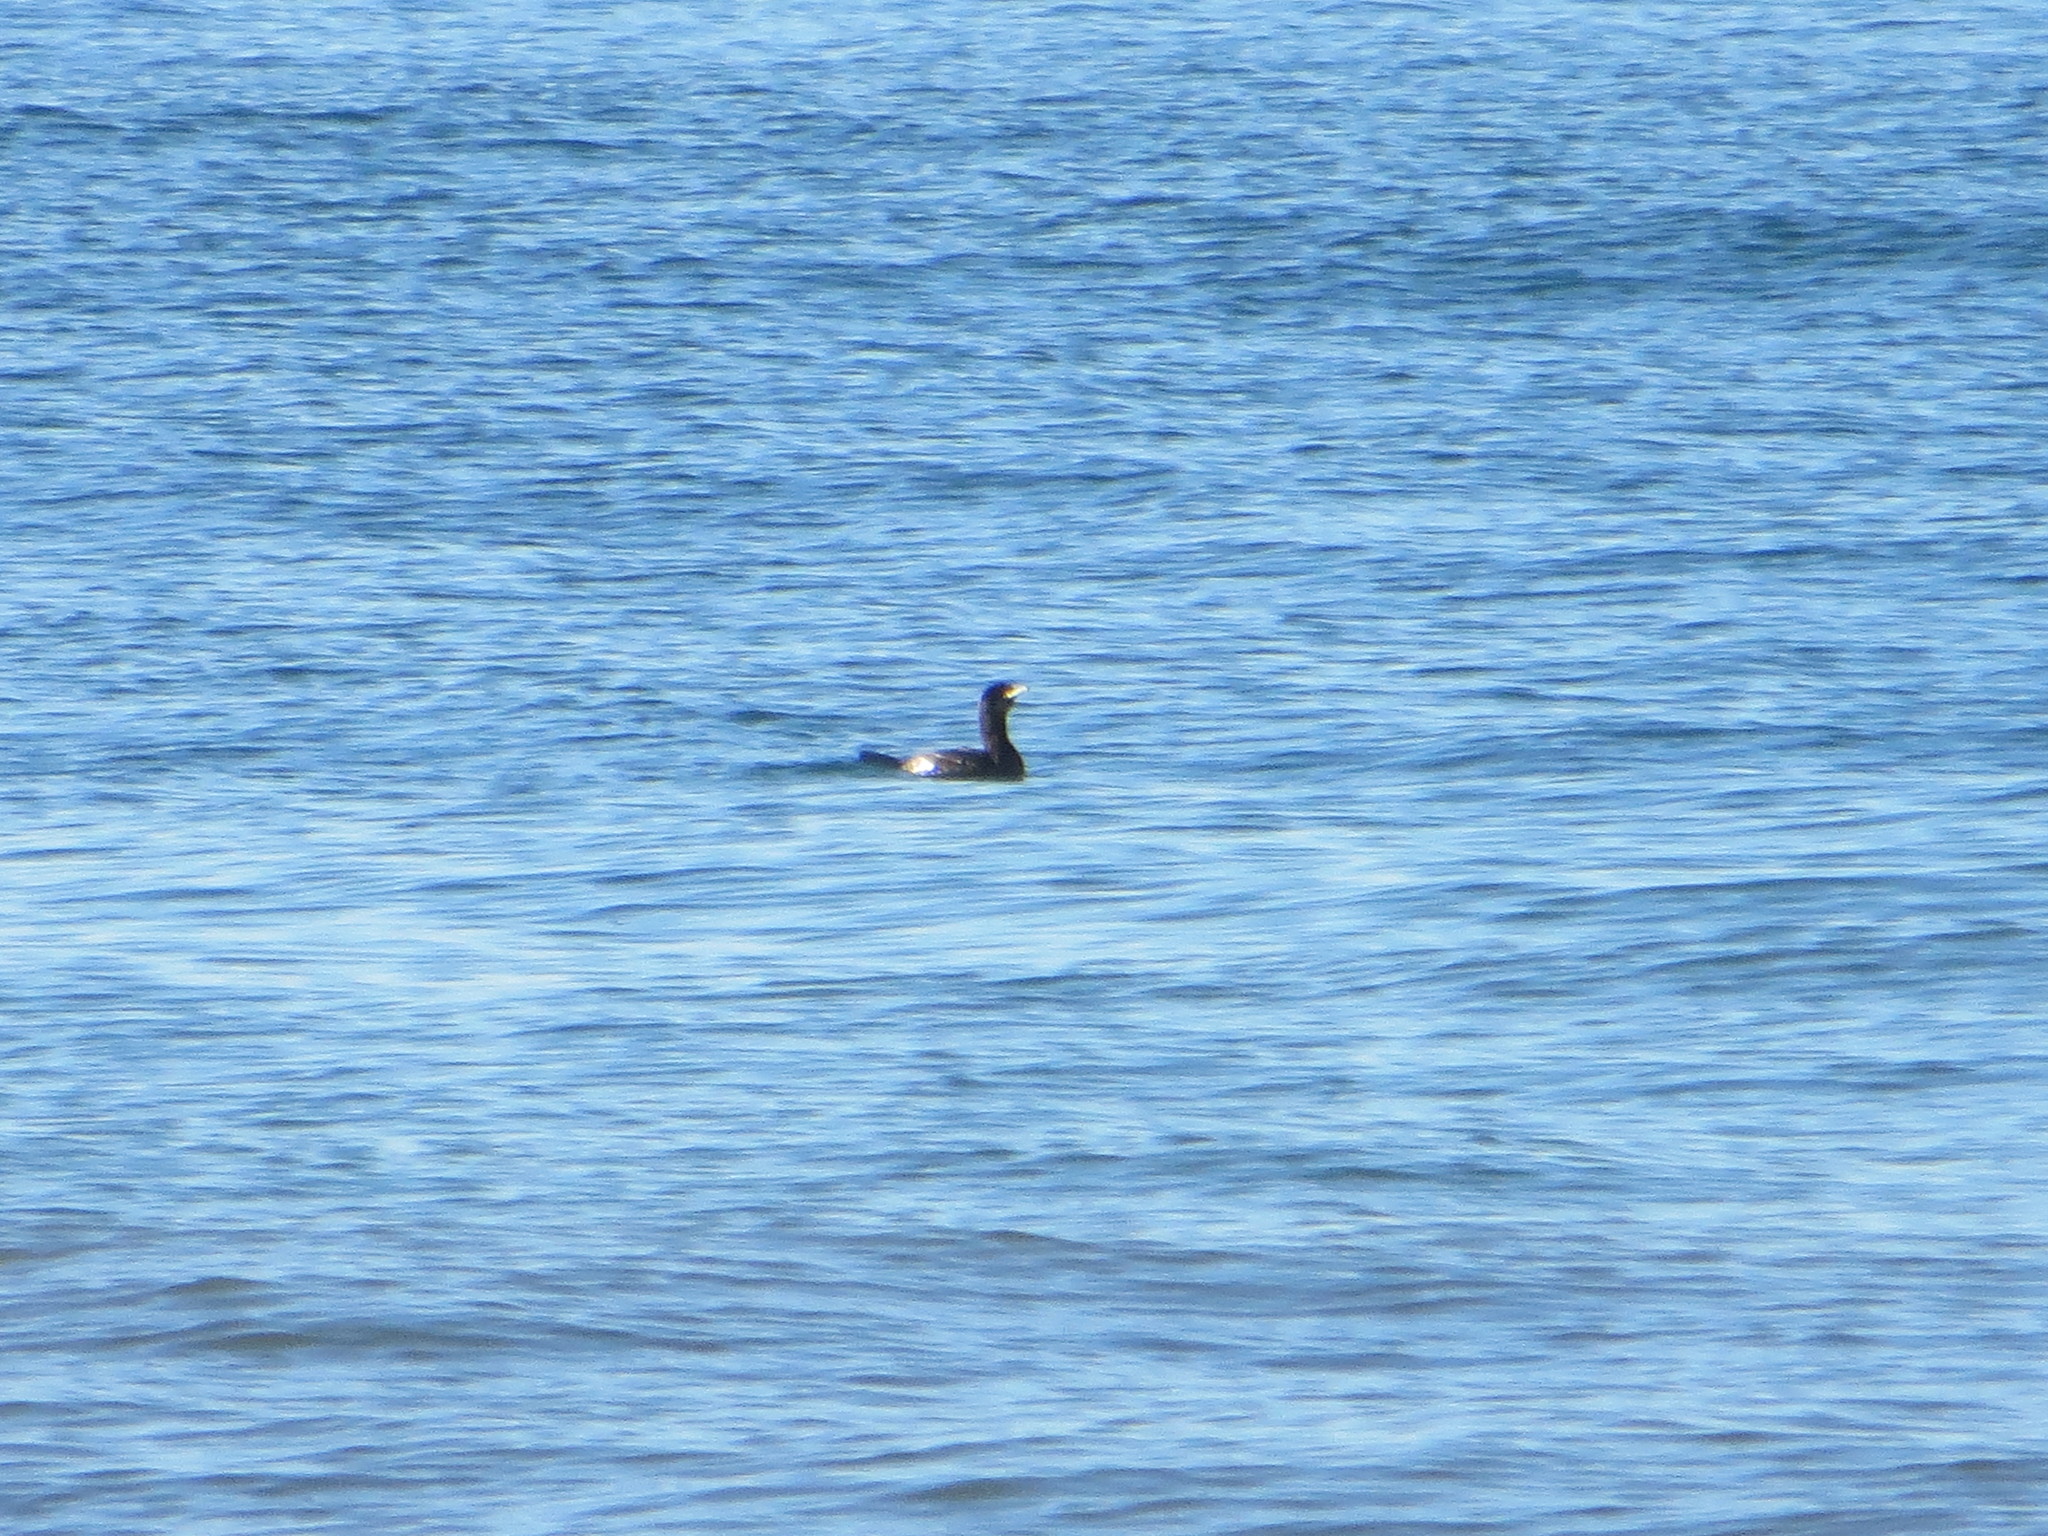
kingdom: Animalia
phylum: Chordata
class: Aves
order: Suliformes
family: Phalacrocoracidae
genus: Phalacrocorax
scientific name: Phalacrocorax auritus
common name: Double-crested cormorant
